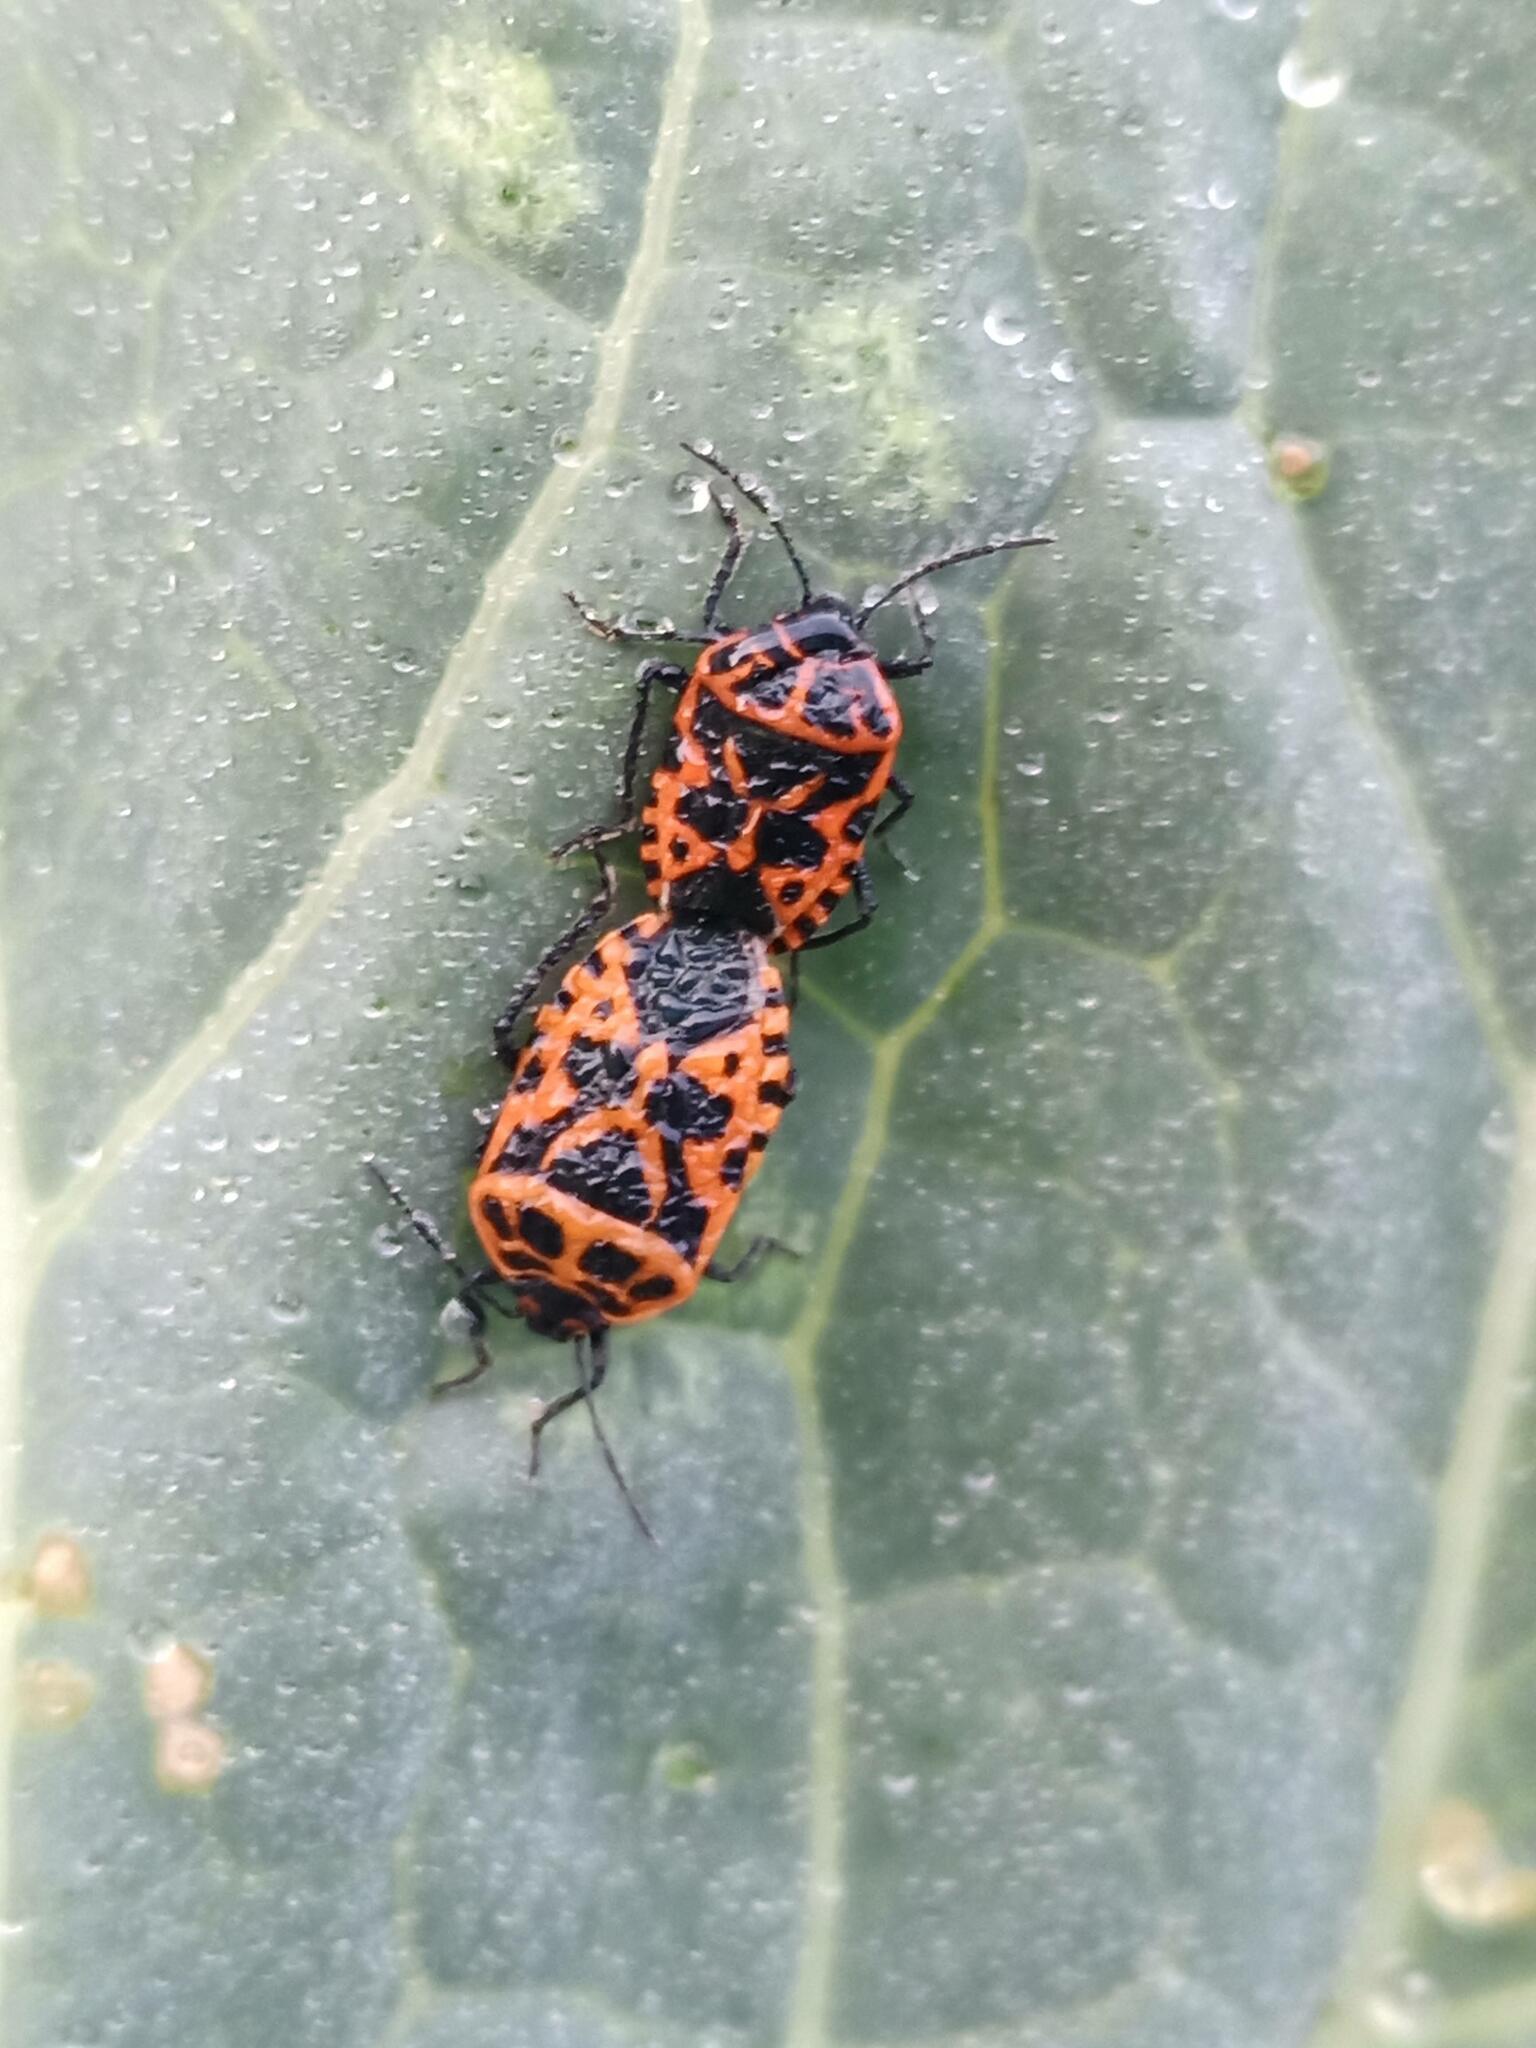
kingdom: Animalia
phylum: Arthropoda
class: Insecta
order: Hemiptera
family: Pentatomidae
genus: Eurydema
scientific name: Eurydema ventralis
